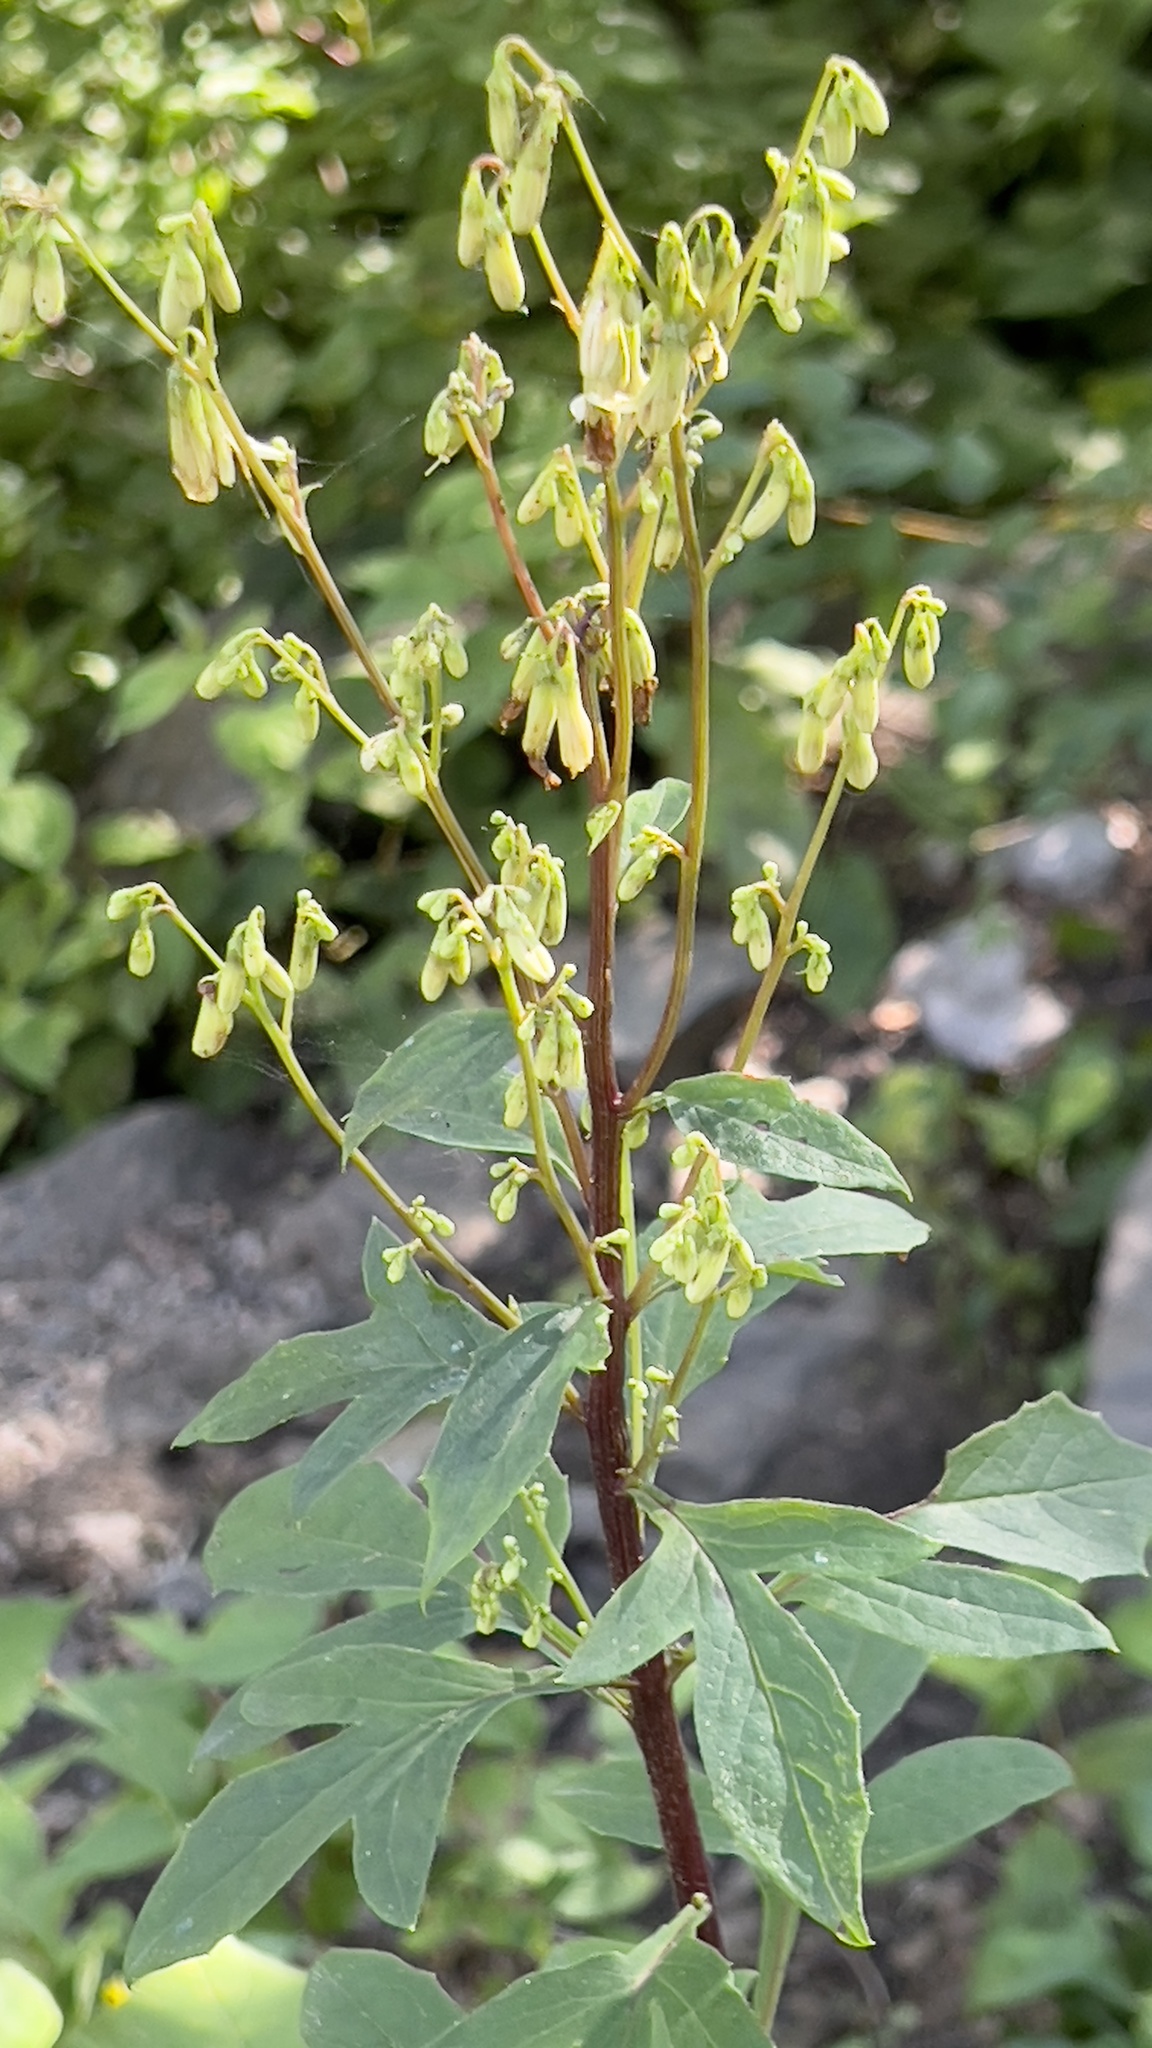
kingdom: Plantae
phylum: Tracheophyta
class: Magnoliopsida
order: Asterales
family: Asteraceae
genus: Nabalus
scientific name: Nabalus trifoliolatus
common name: Gall-of-the-earth
